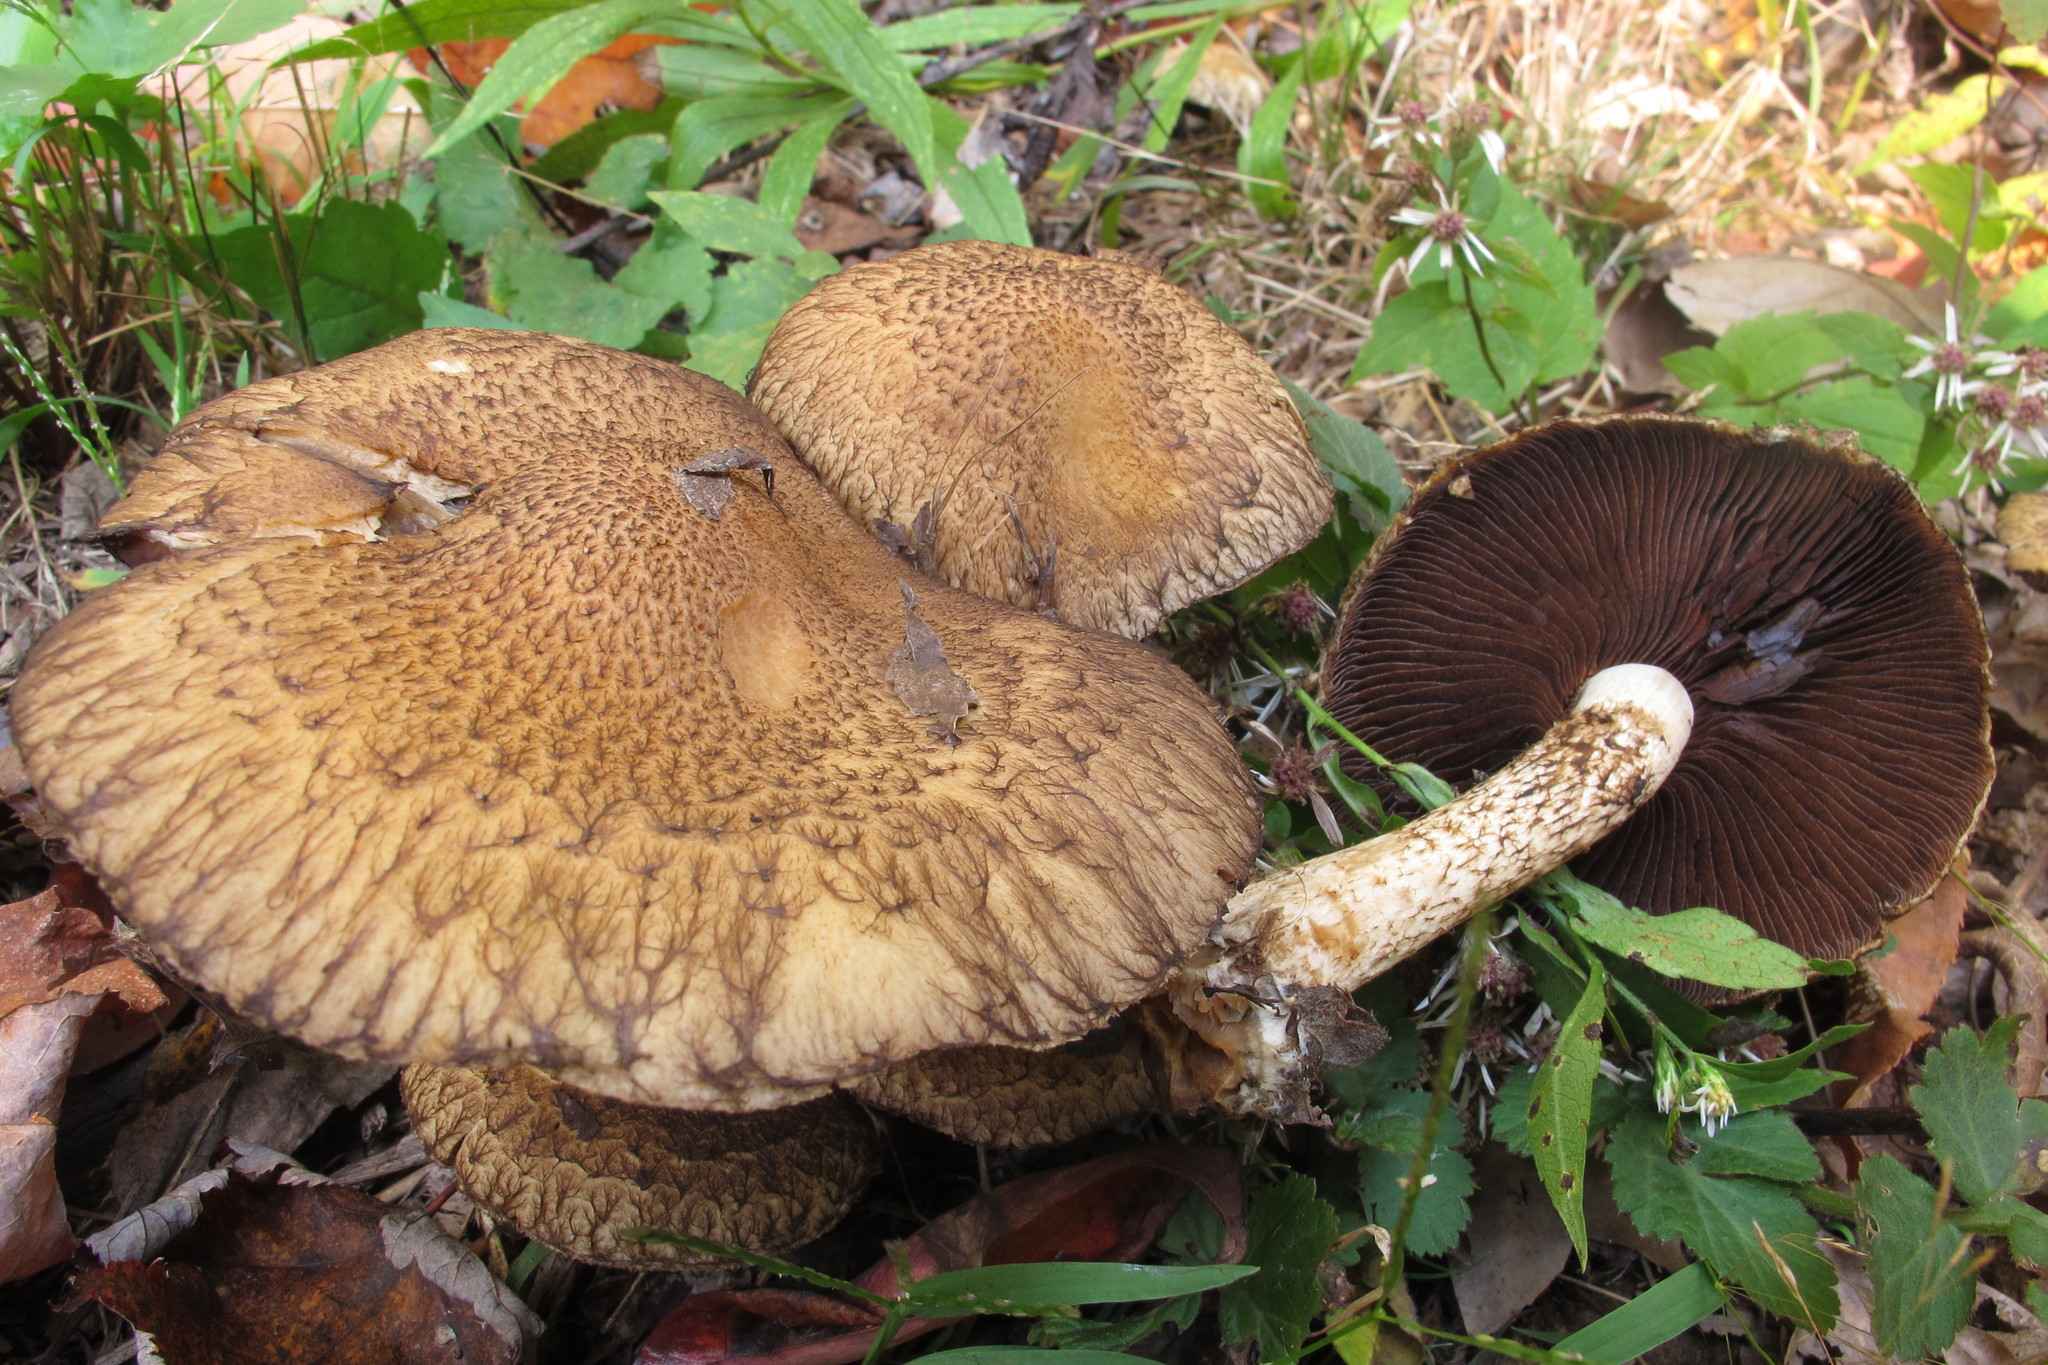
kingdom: Fungi
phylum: Basidiomycota
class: Agaricomycetes
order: Agaricales
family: Psathyrellaceae
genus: Lacrymaria
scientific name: Lacrymaria echiniceps
